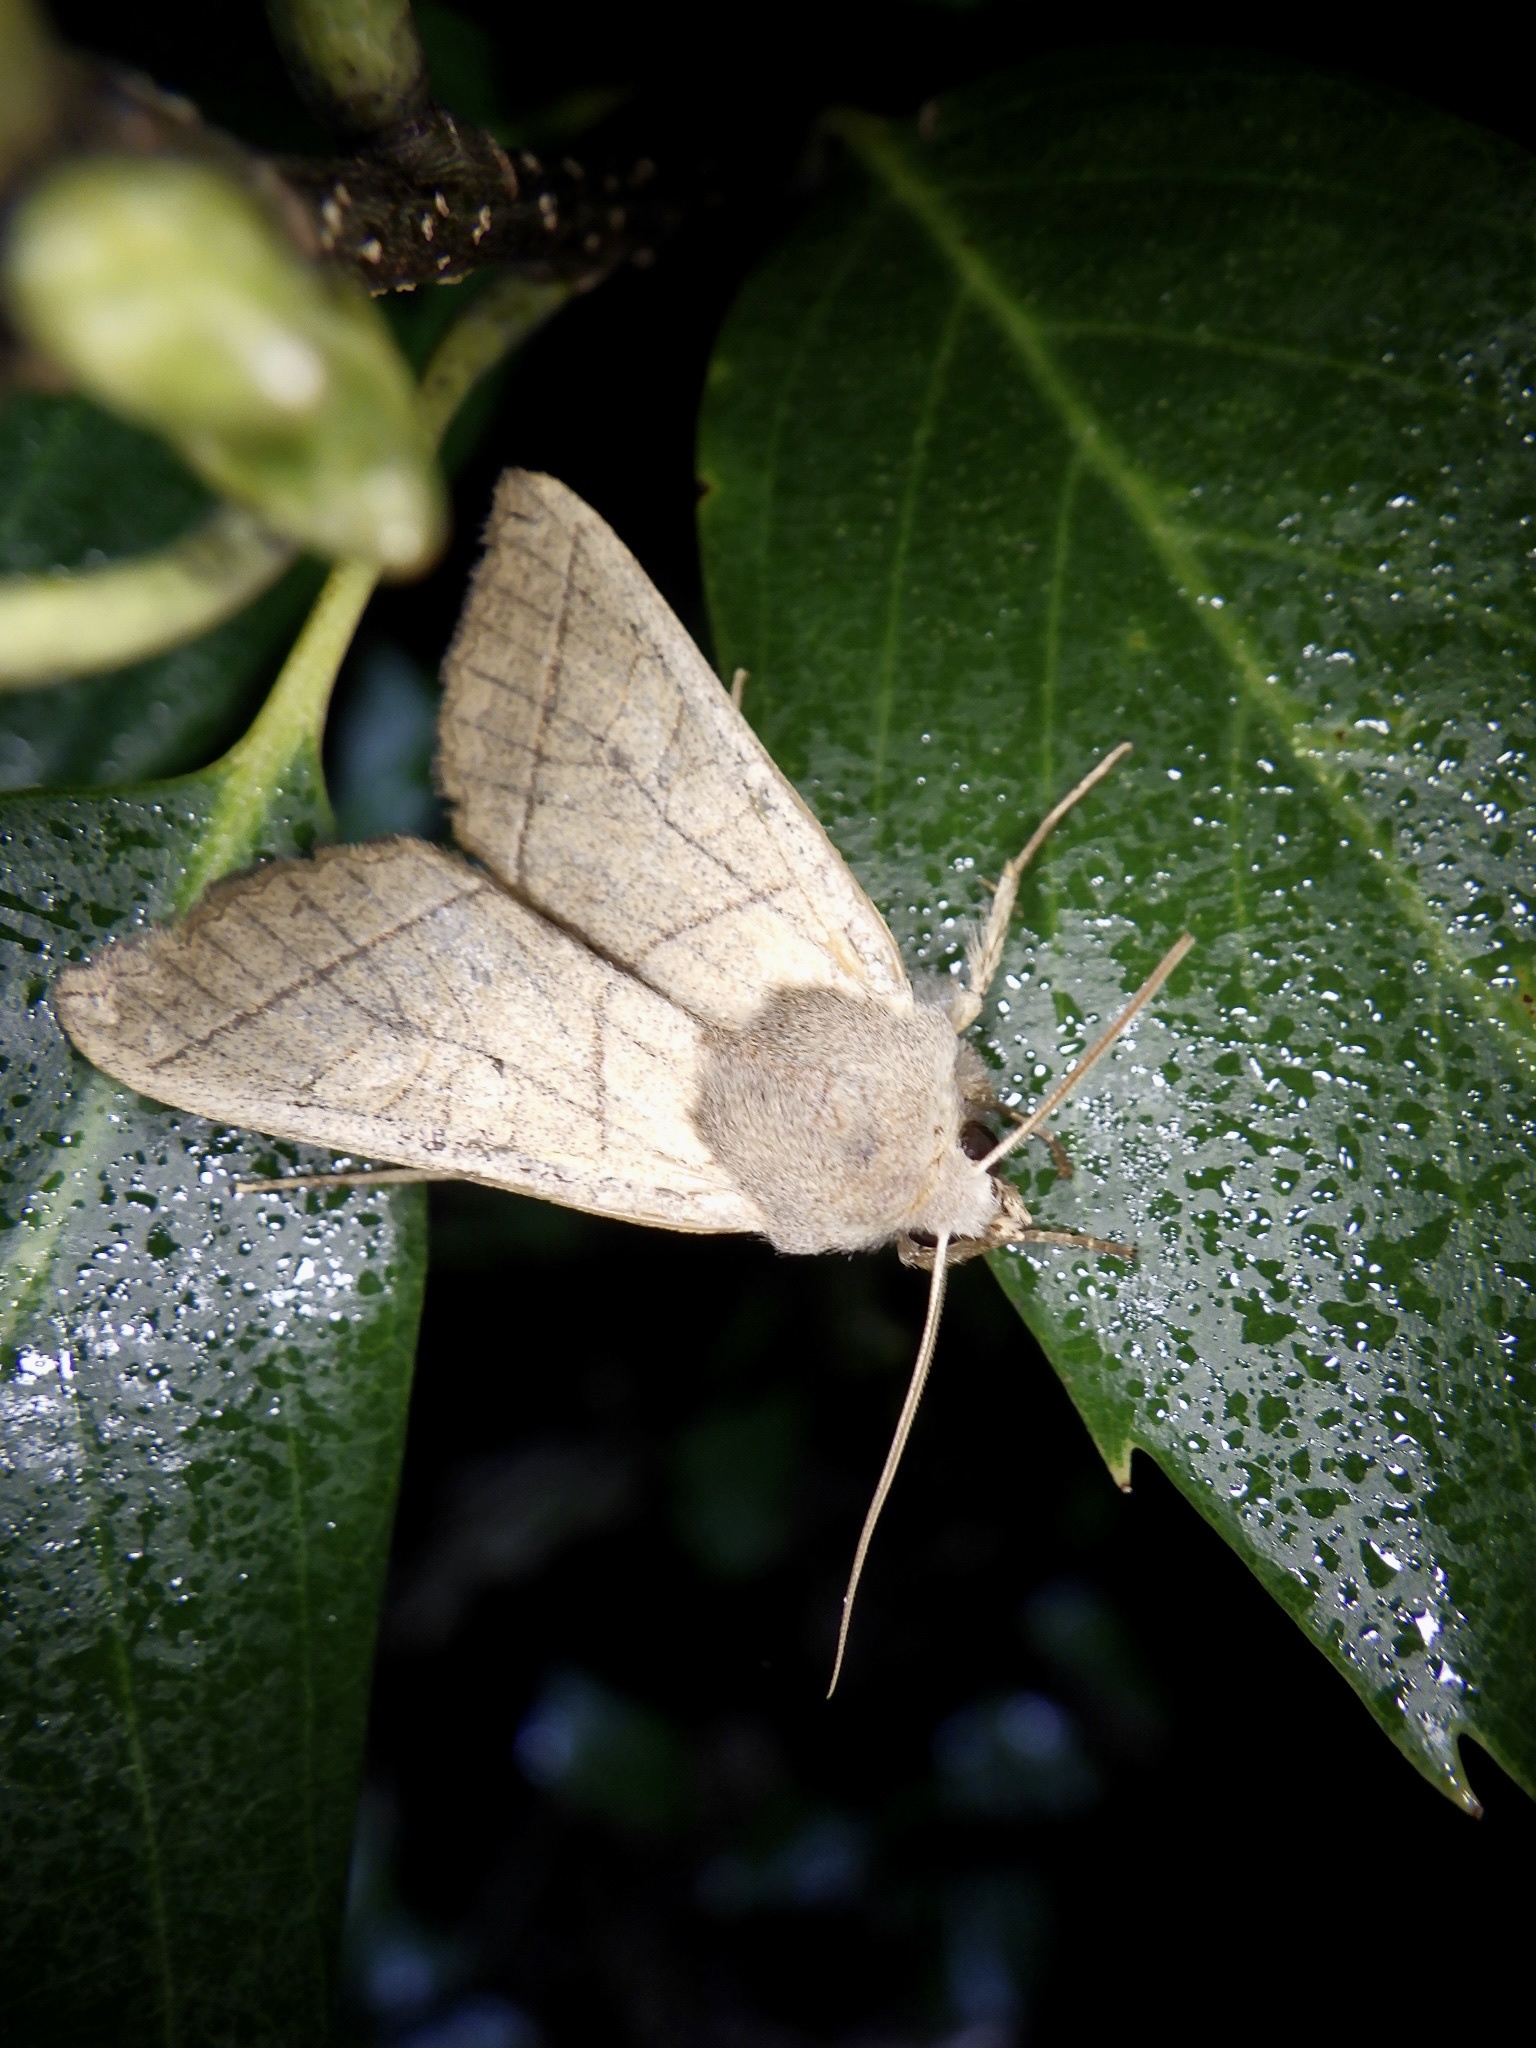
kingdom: Animalia
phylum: Arthropoda
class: Insecta
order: Lepidoptera
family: Noctuidae
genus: Telorta
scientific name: Telorta divergens
